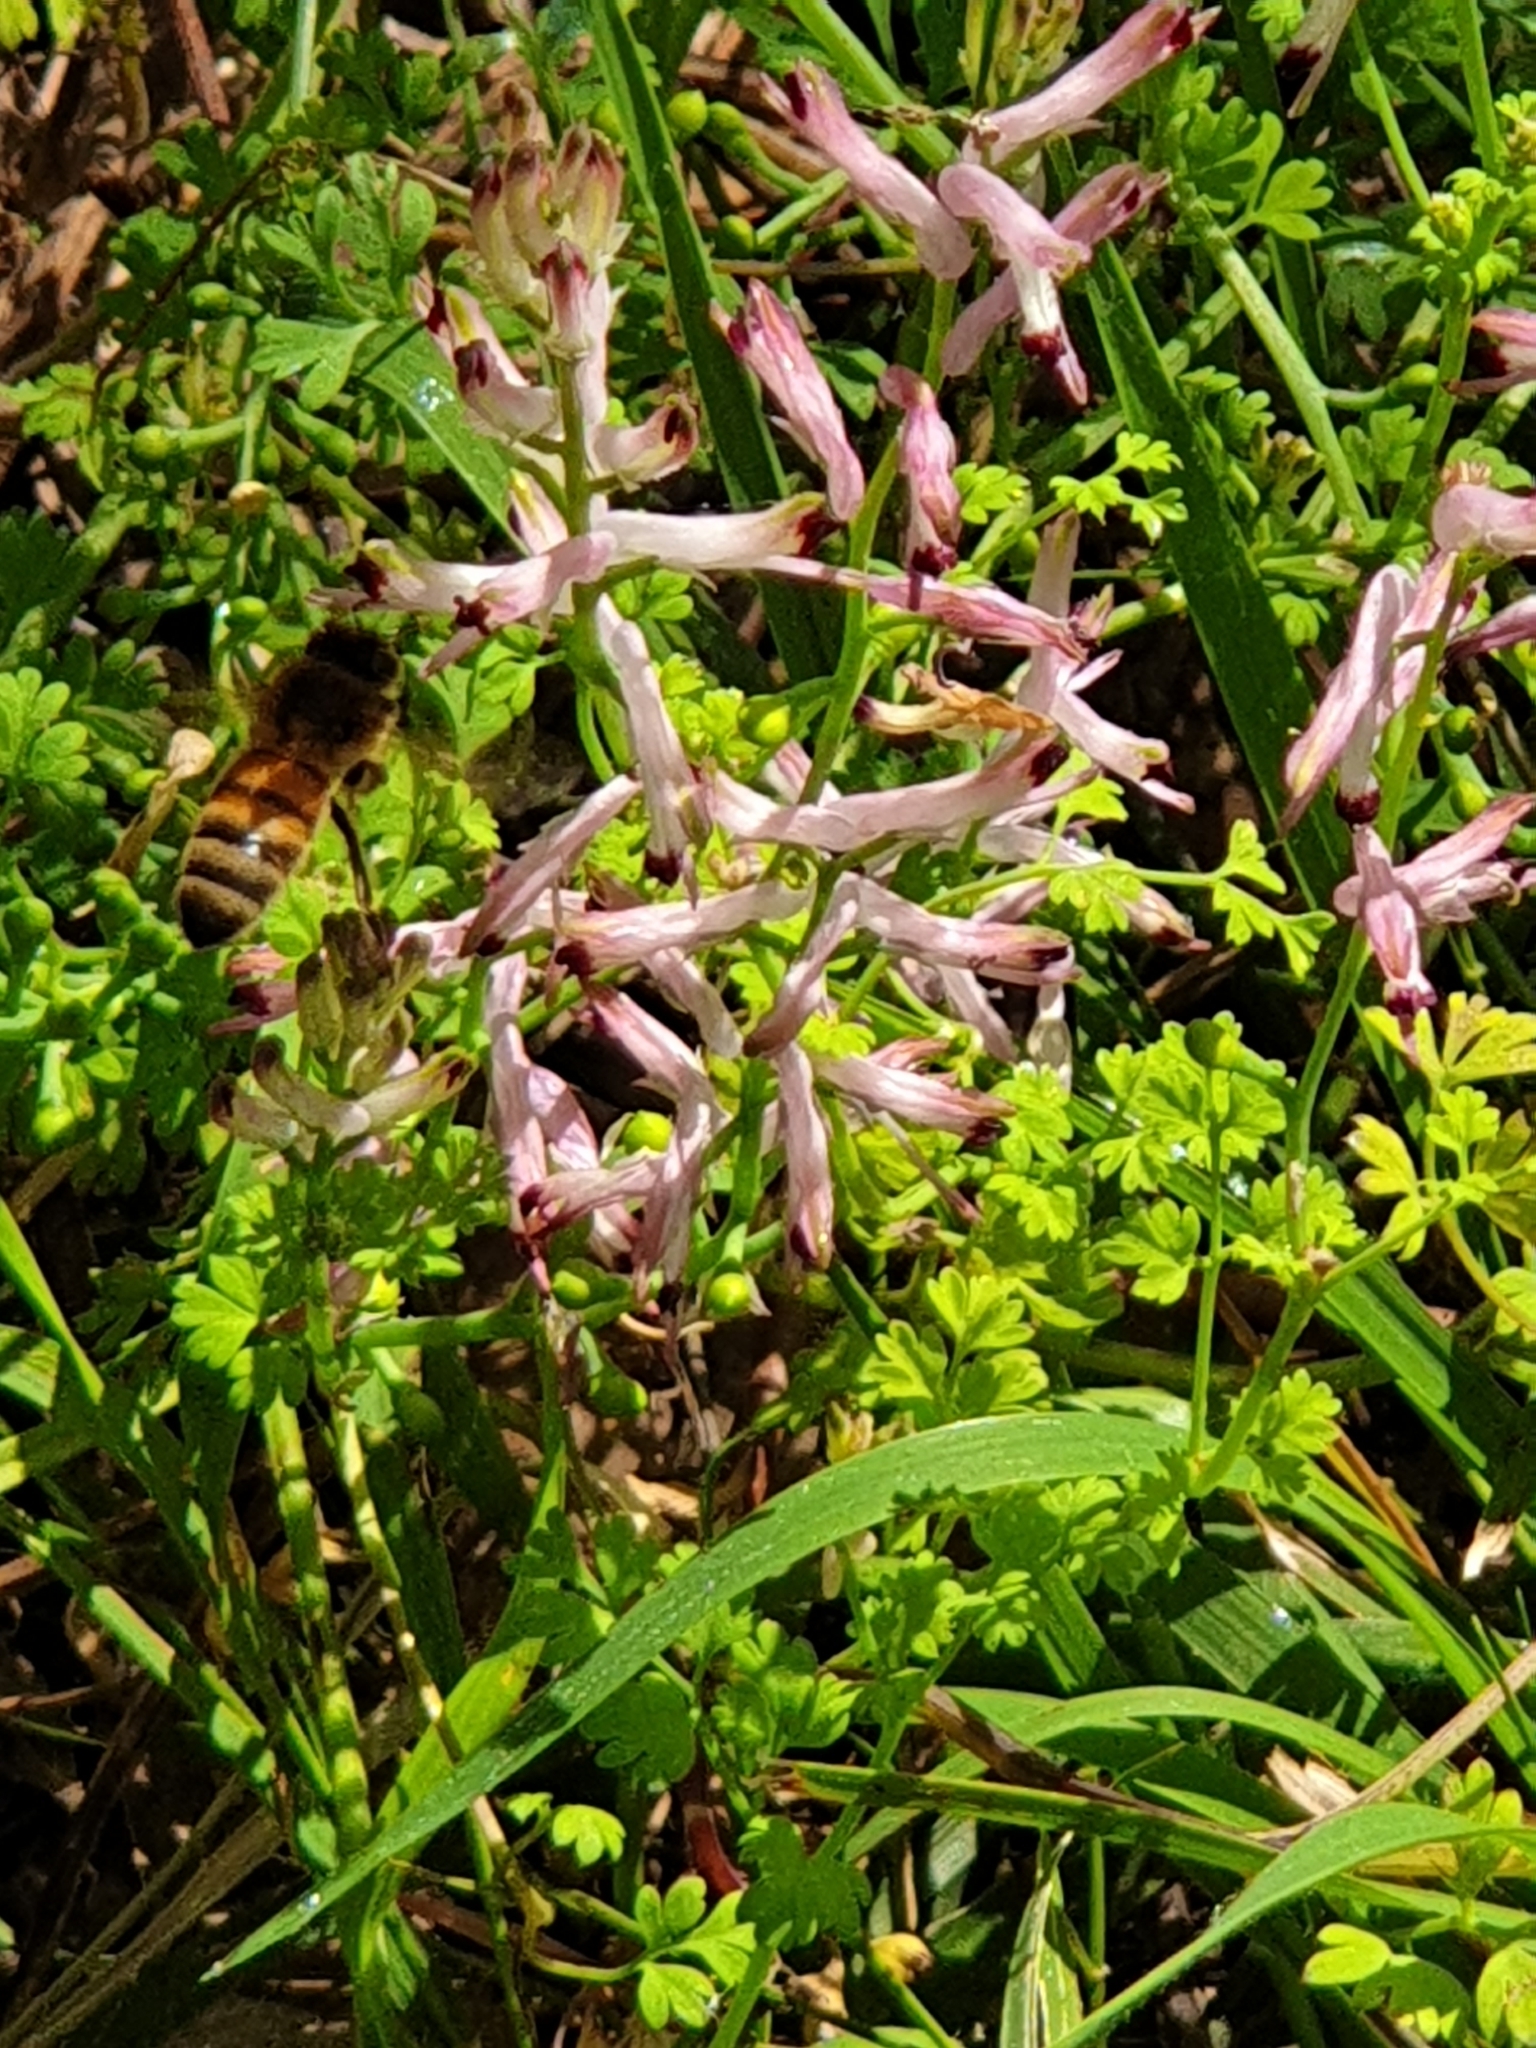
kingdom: Animalia
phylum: Arthropoda
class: Insecta
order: Hymenoptera
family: Apidae
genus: Apis
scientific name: Apis mellifera
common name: Honey bee
